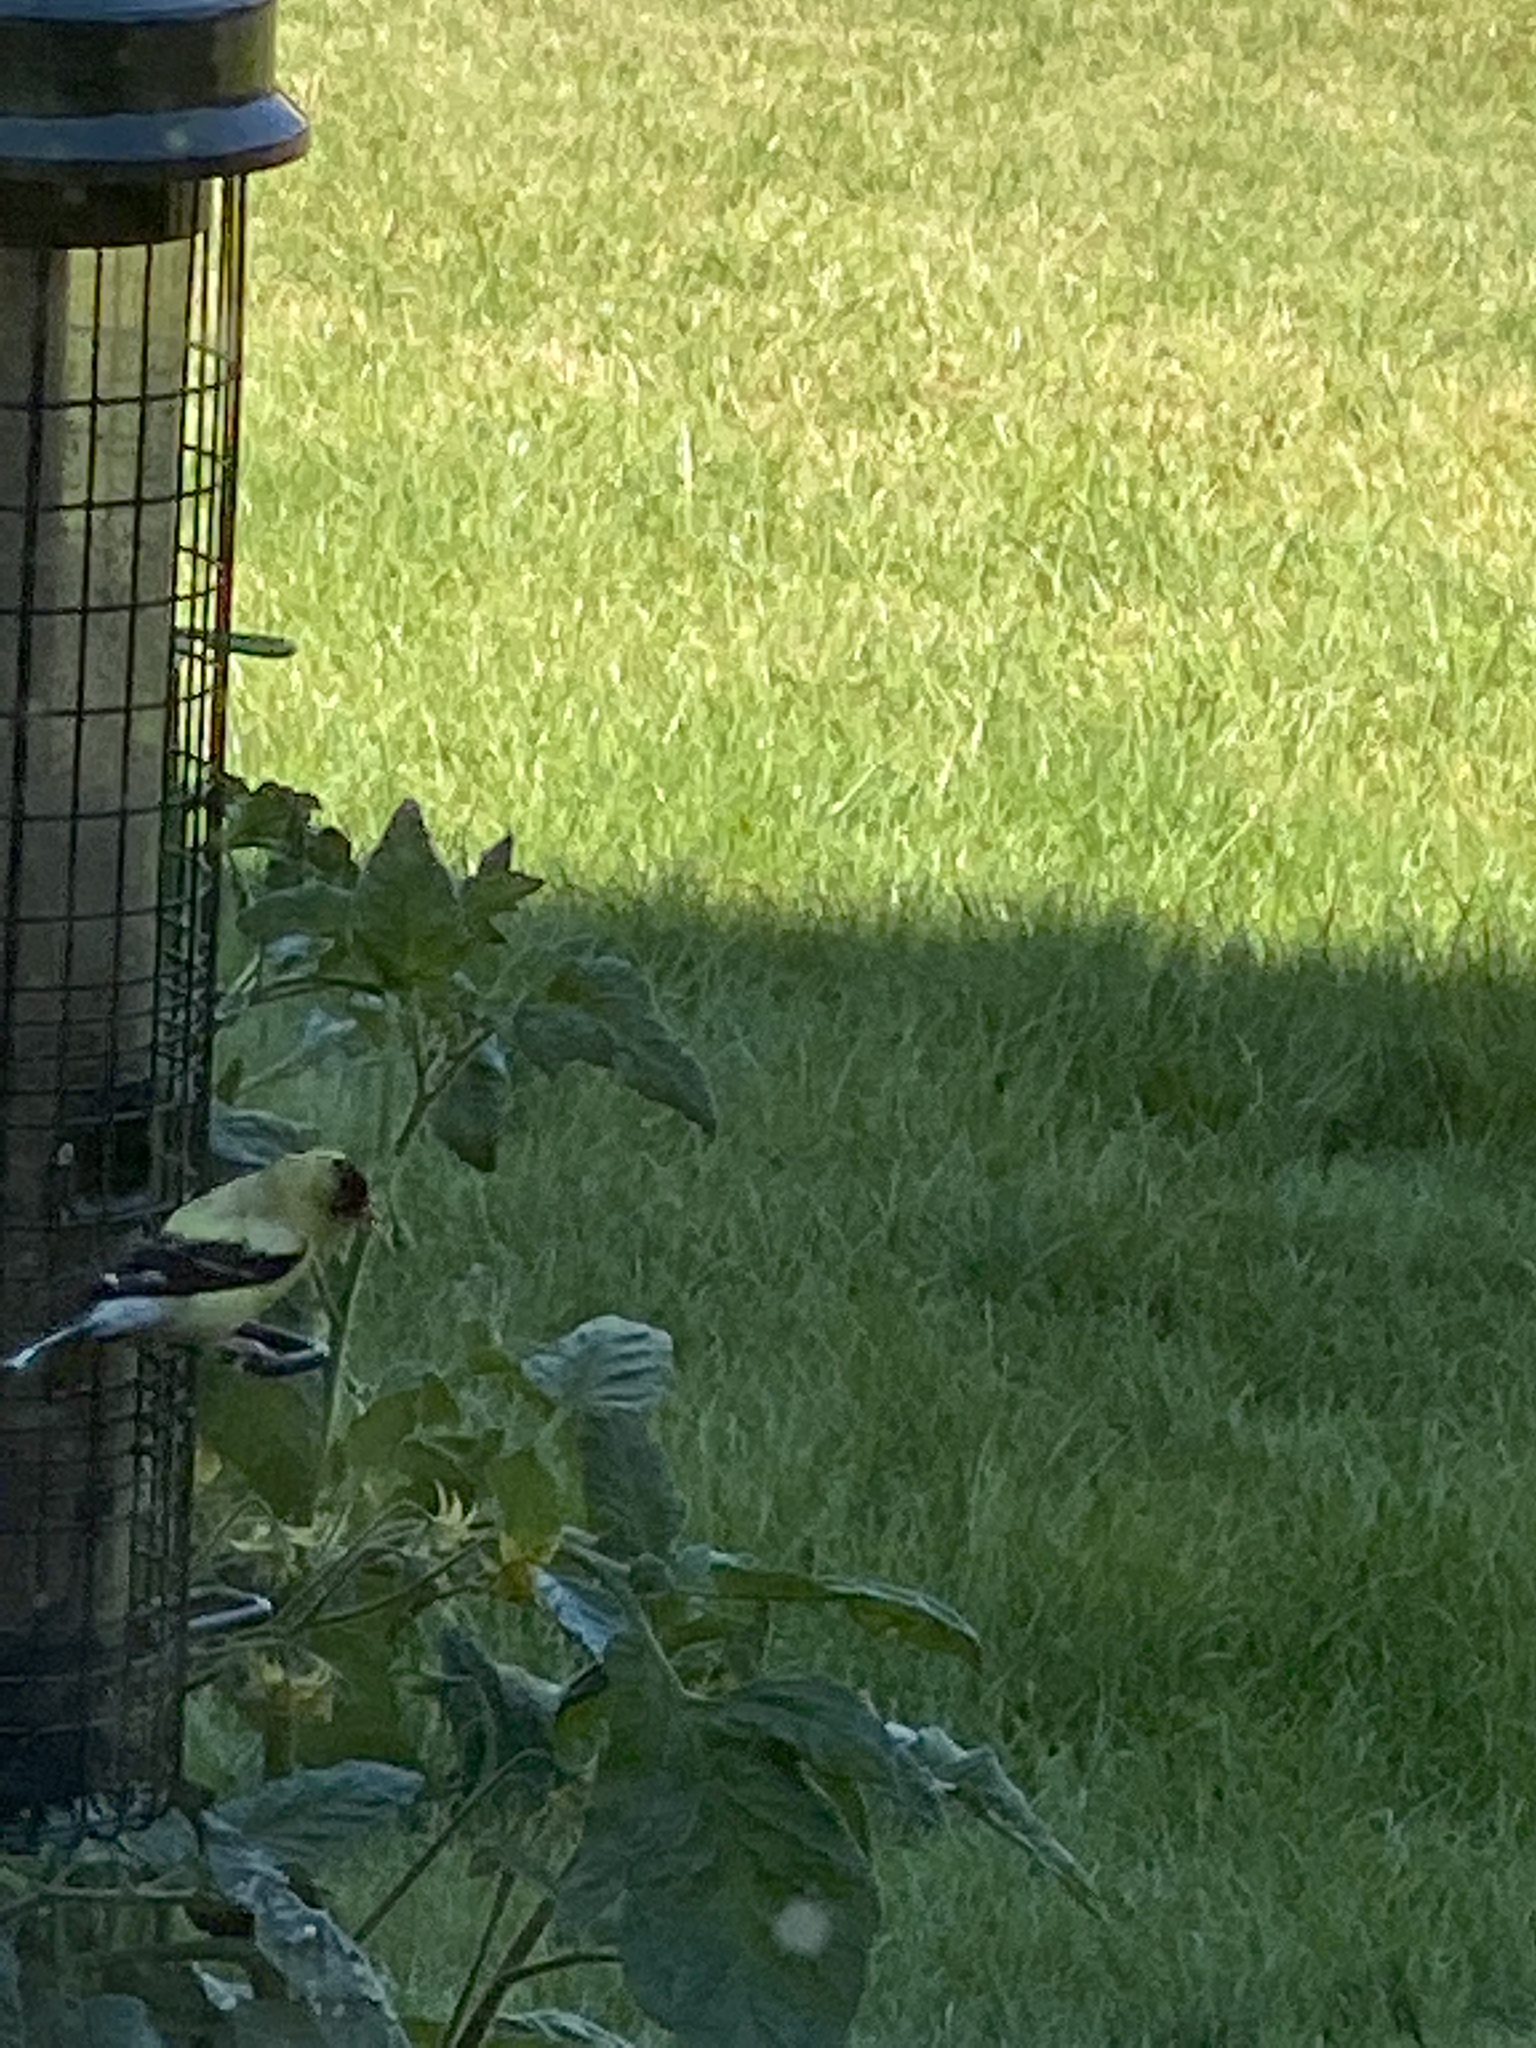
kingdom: Animalia
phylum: Chordata
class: Aves
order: Passeriformes
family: Fringillidae
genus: Spinus
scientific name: Spinus tristis
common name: American goldfinch
